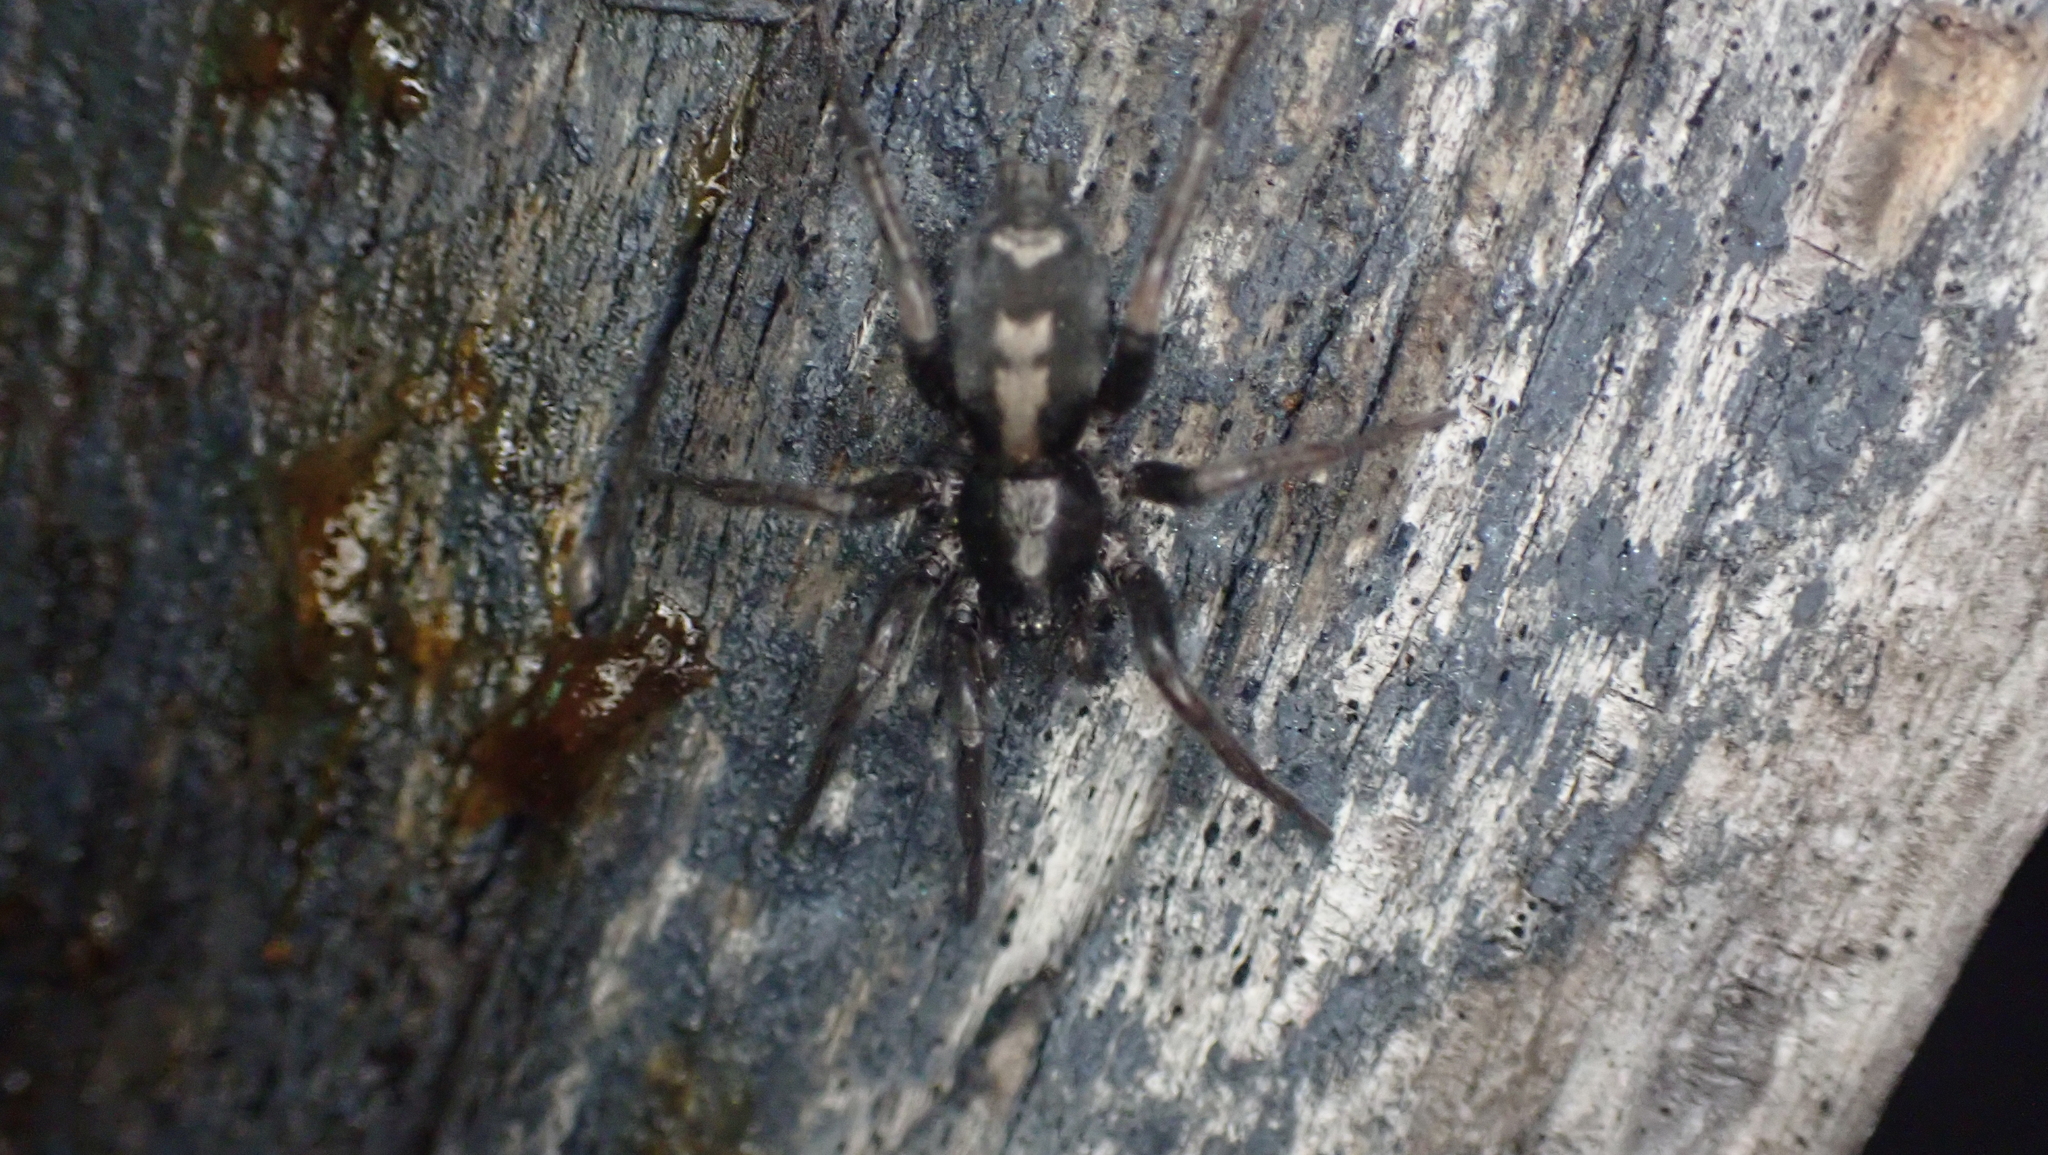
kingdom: Animalia
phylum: Arthropoda
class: Arachnida
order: Araneae
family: Gnaphosidae
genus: Herpyllus
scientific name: Herpyllus ecclesiasticus
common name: Eastern parson spider
